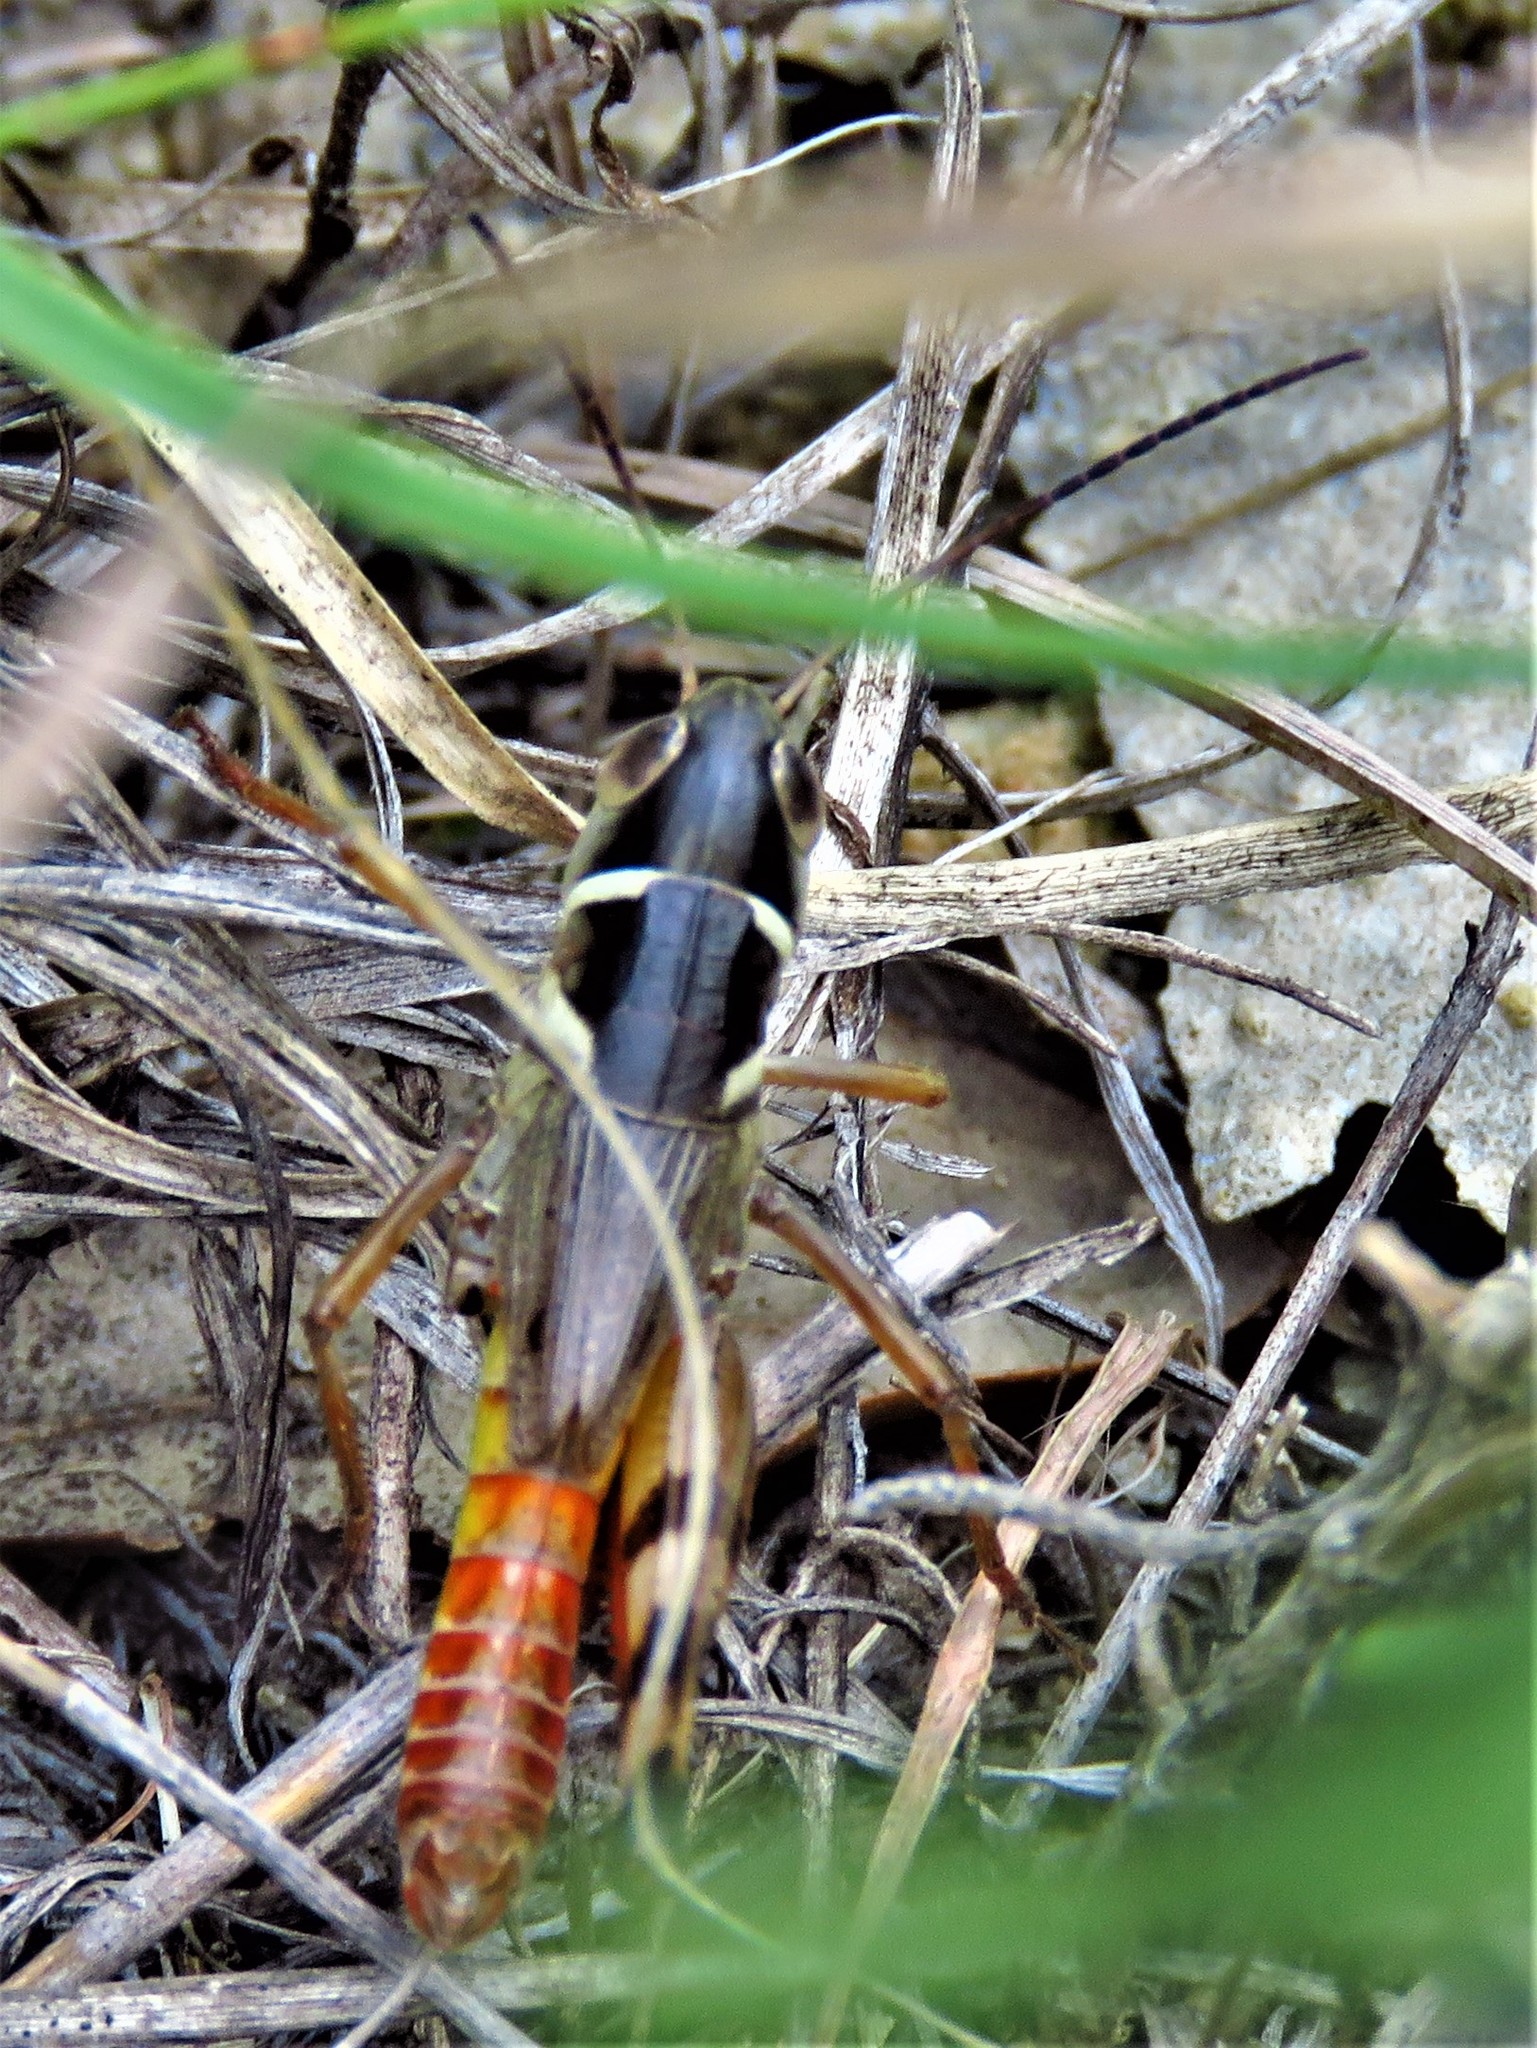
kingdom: Animalia
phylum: Arthropoda
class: Insecta
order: Orthoptera
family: Acrididae
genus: Boopedon
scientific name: Boopedon auriventris
